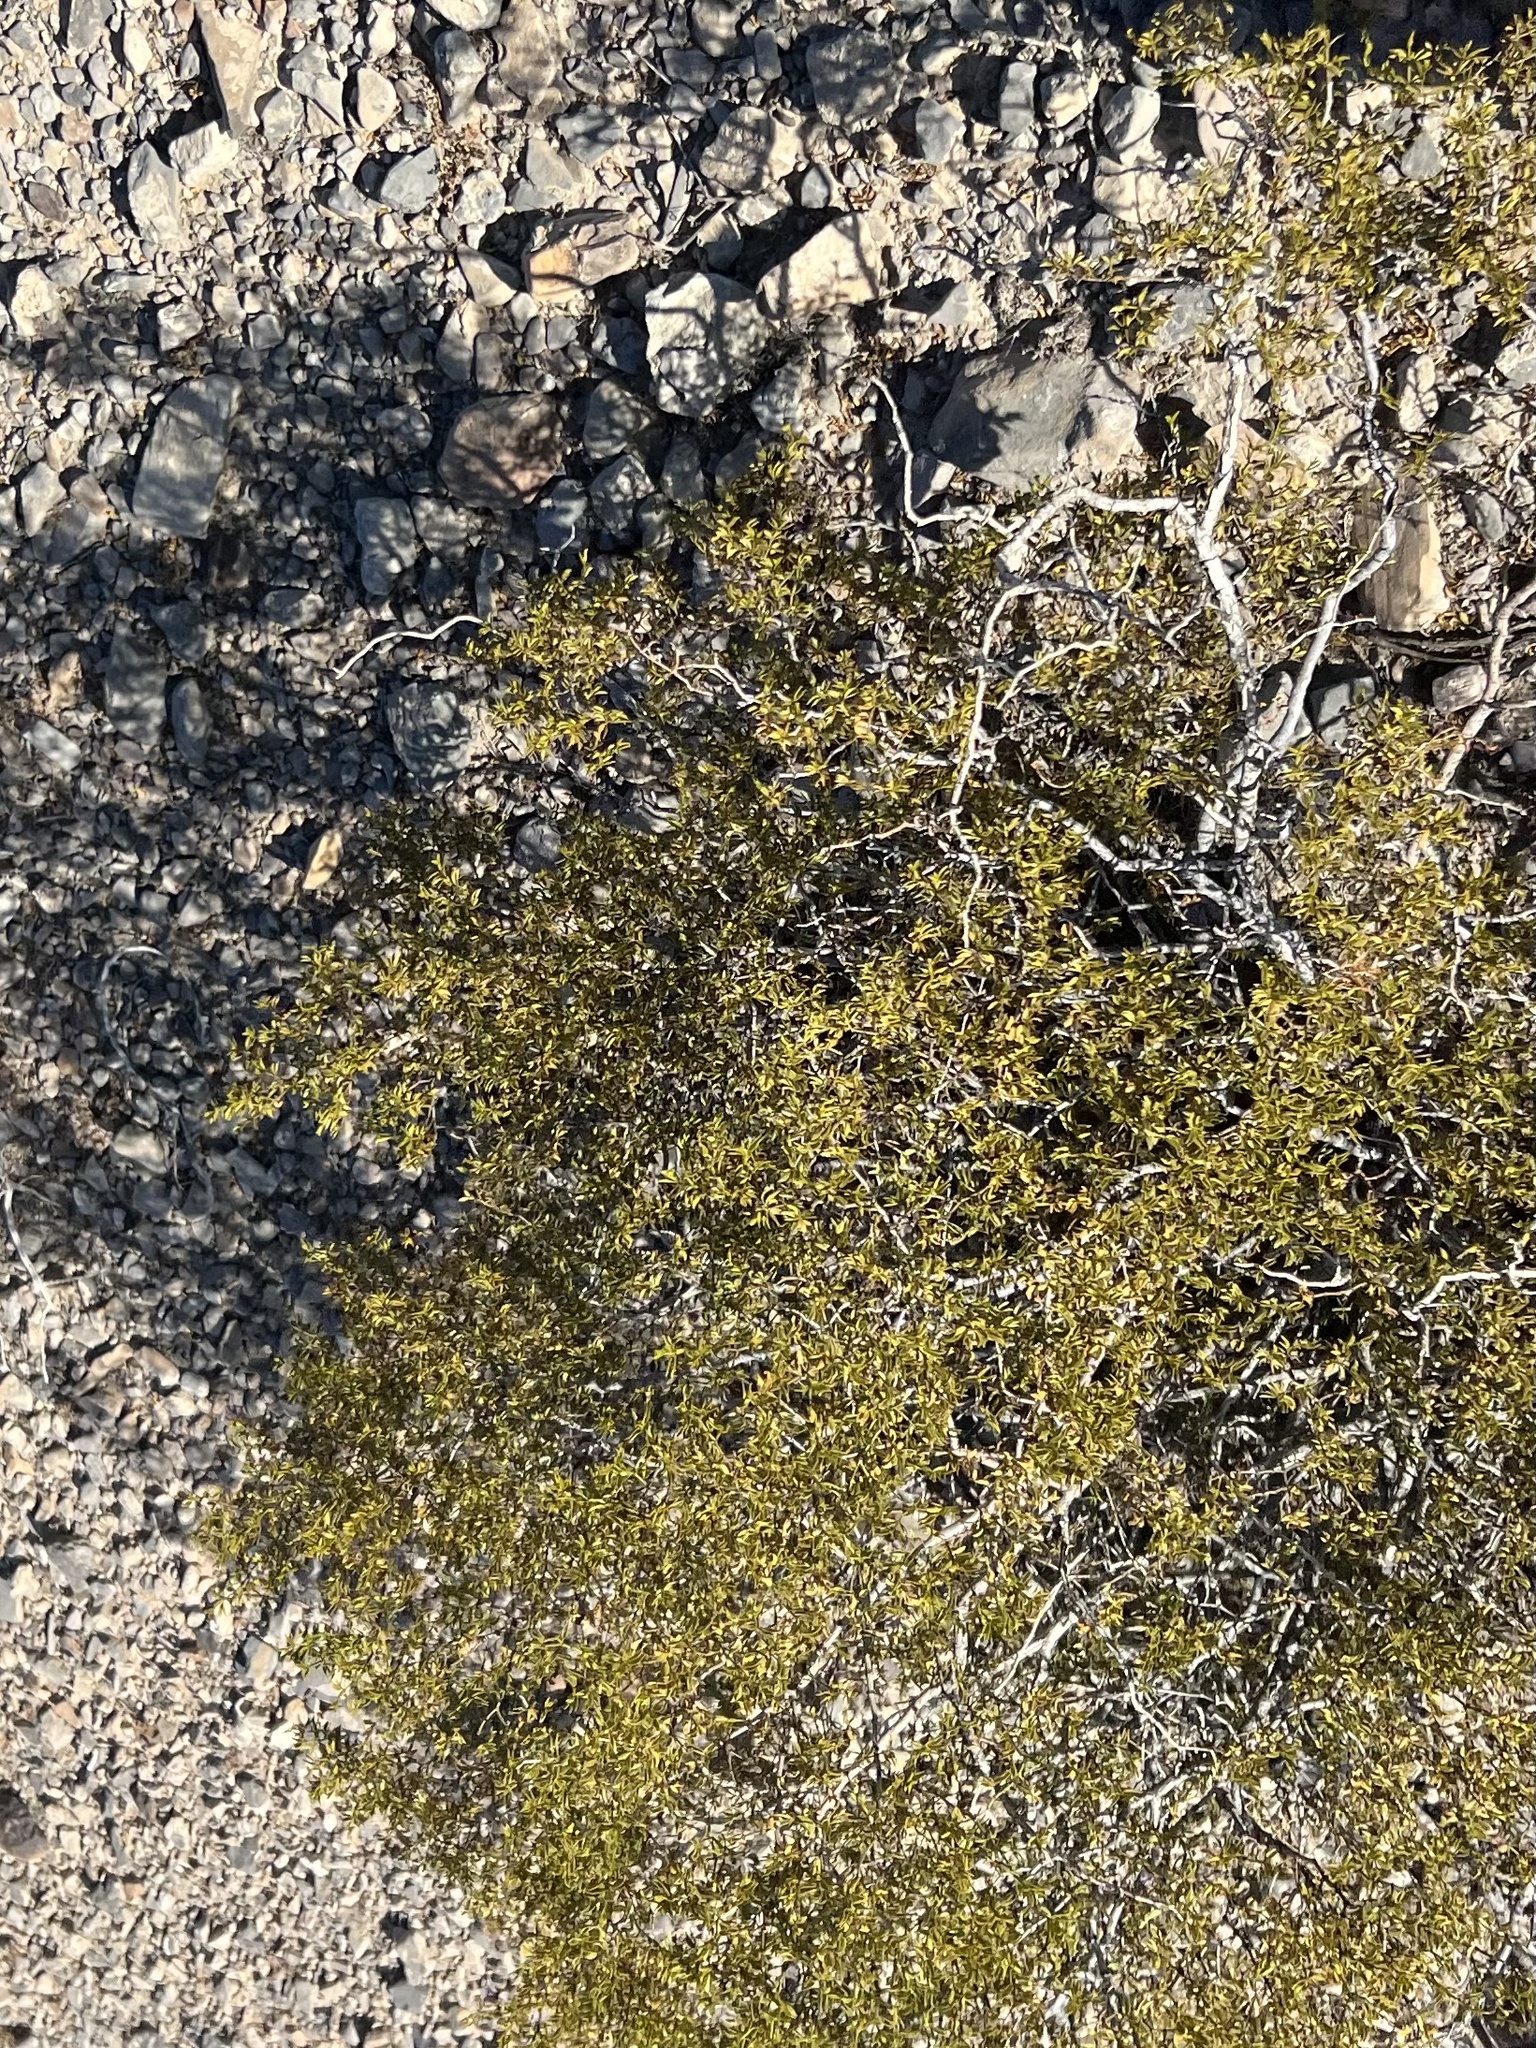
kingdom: Plantae
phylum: Tracheophyta
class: Magnoliopsida
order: Zygophyllales
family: Zygophyllaceae
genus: Larrea
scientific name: Larrea tridentata
